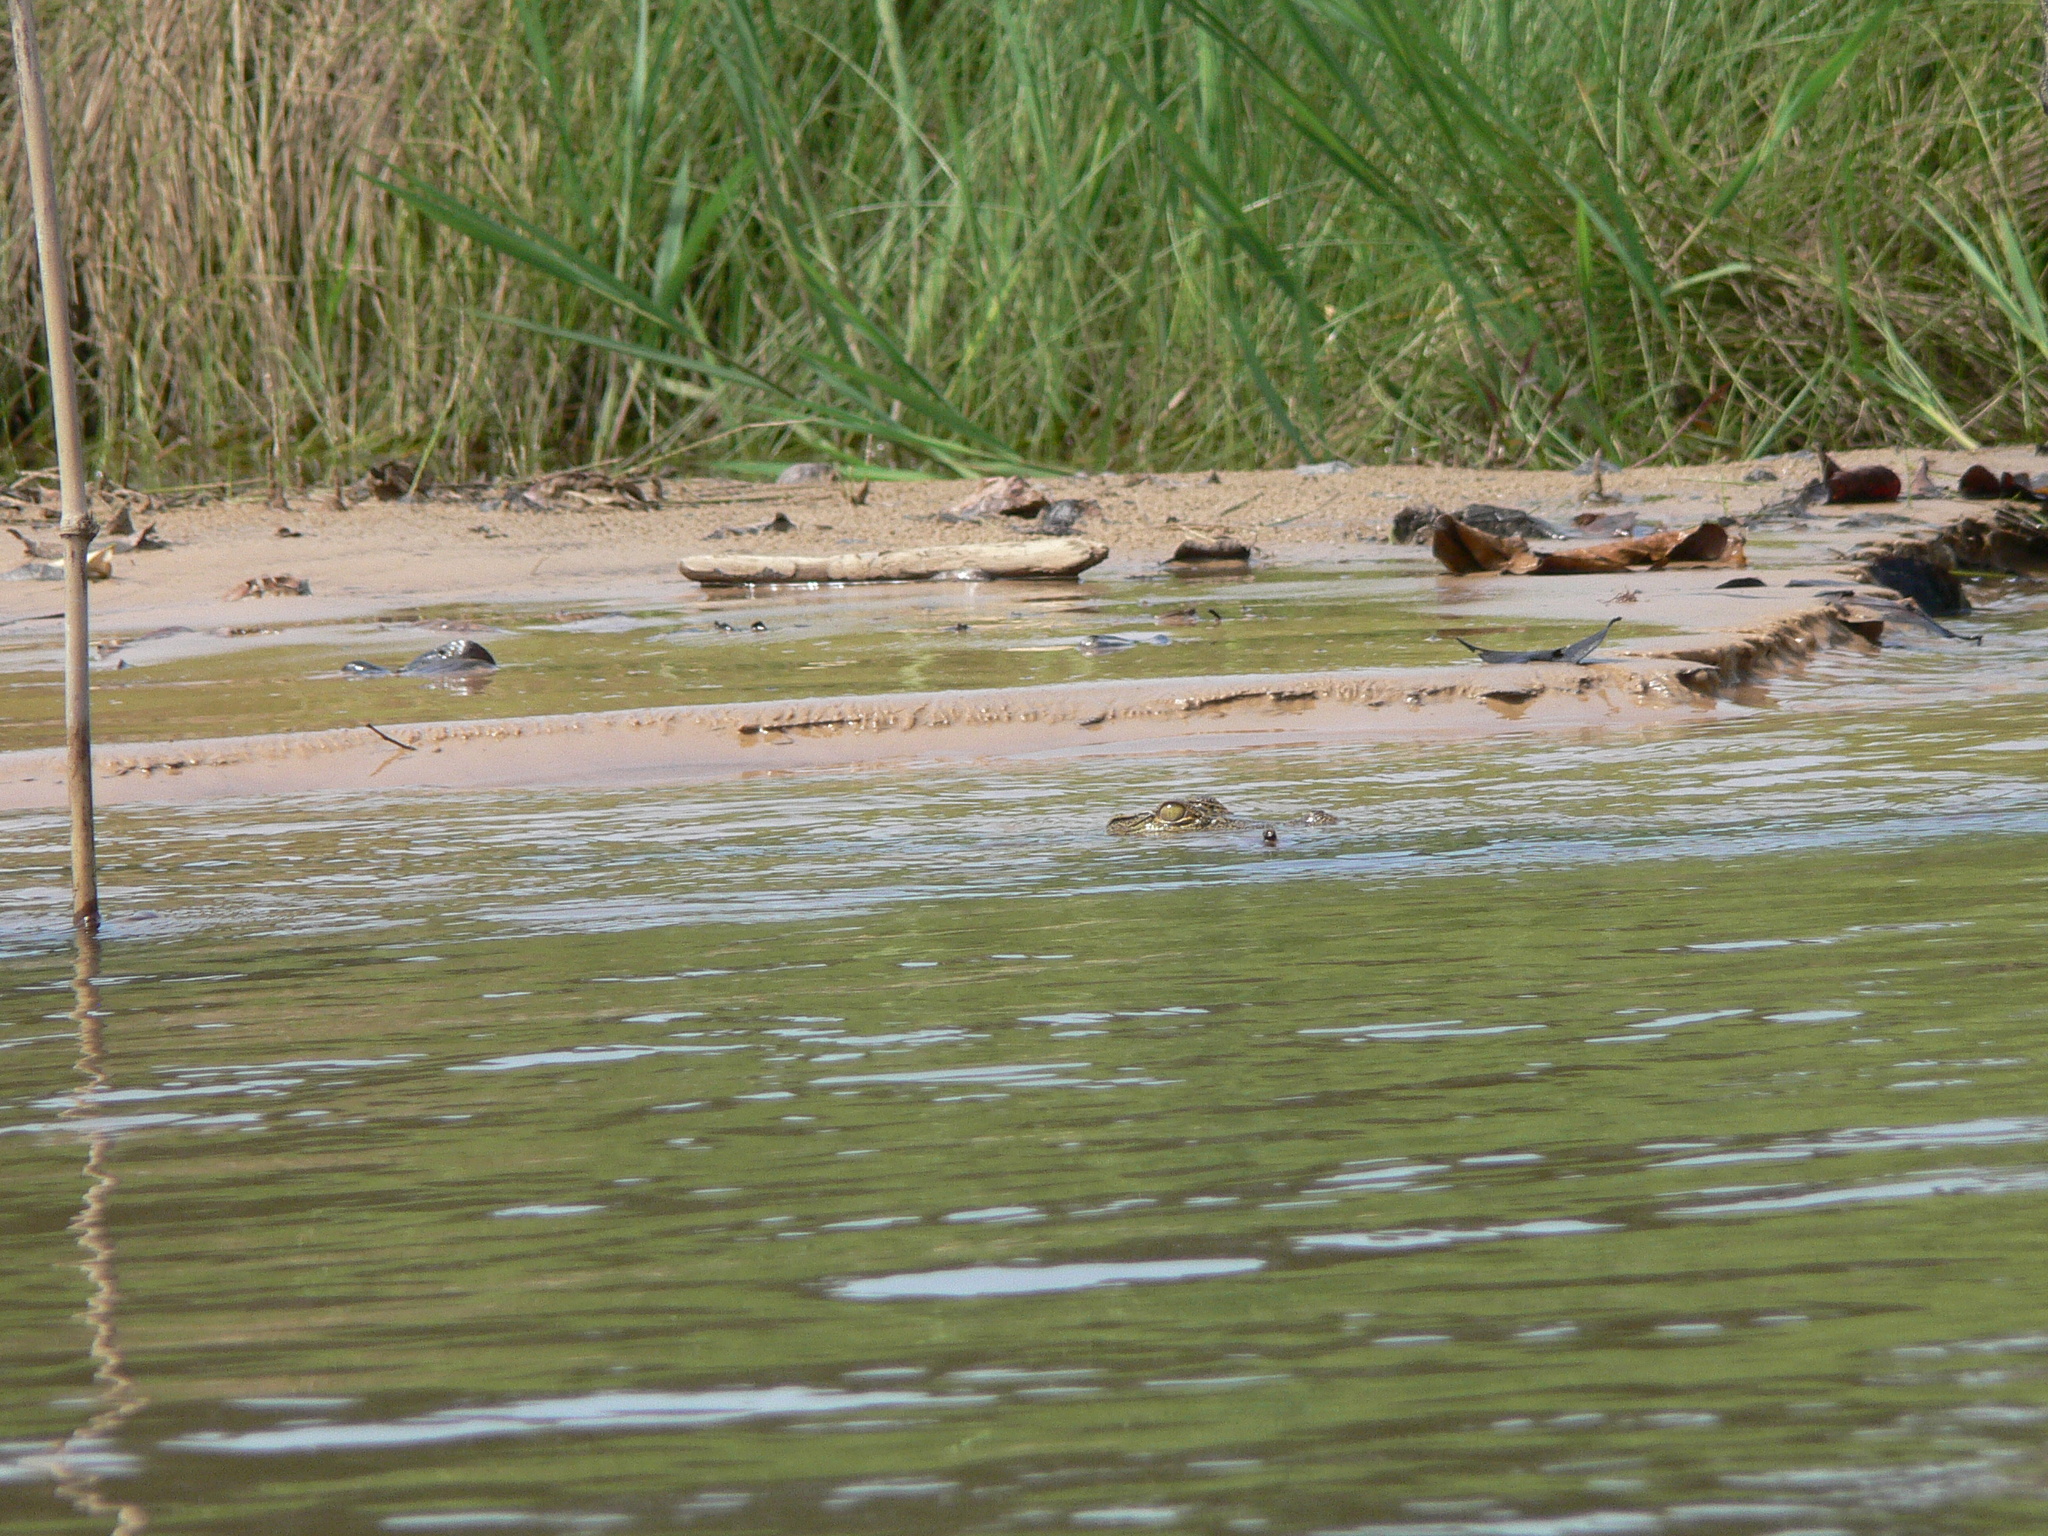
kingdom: Animalia
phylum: Chordata
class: Crocodylia
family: Crocodylidae
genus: Crocodylus
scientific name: Crocodylus niloticus
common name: Nile crocodile
